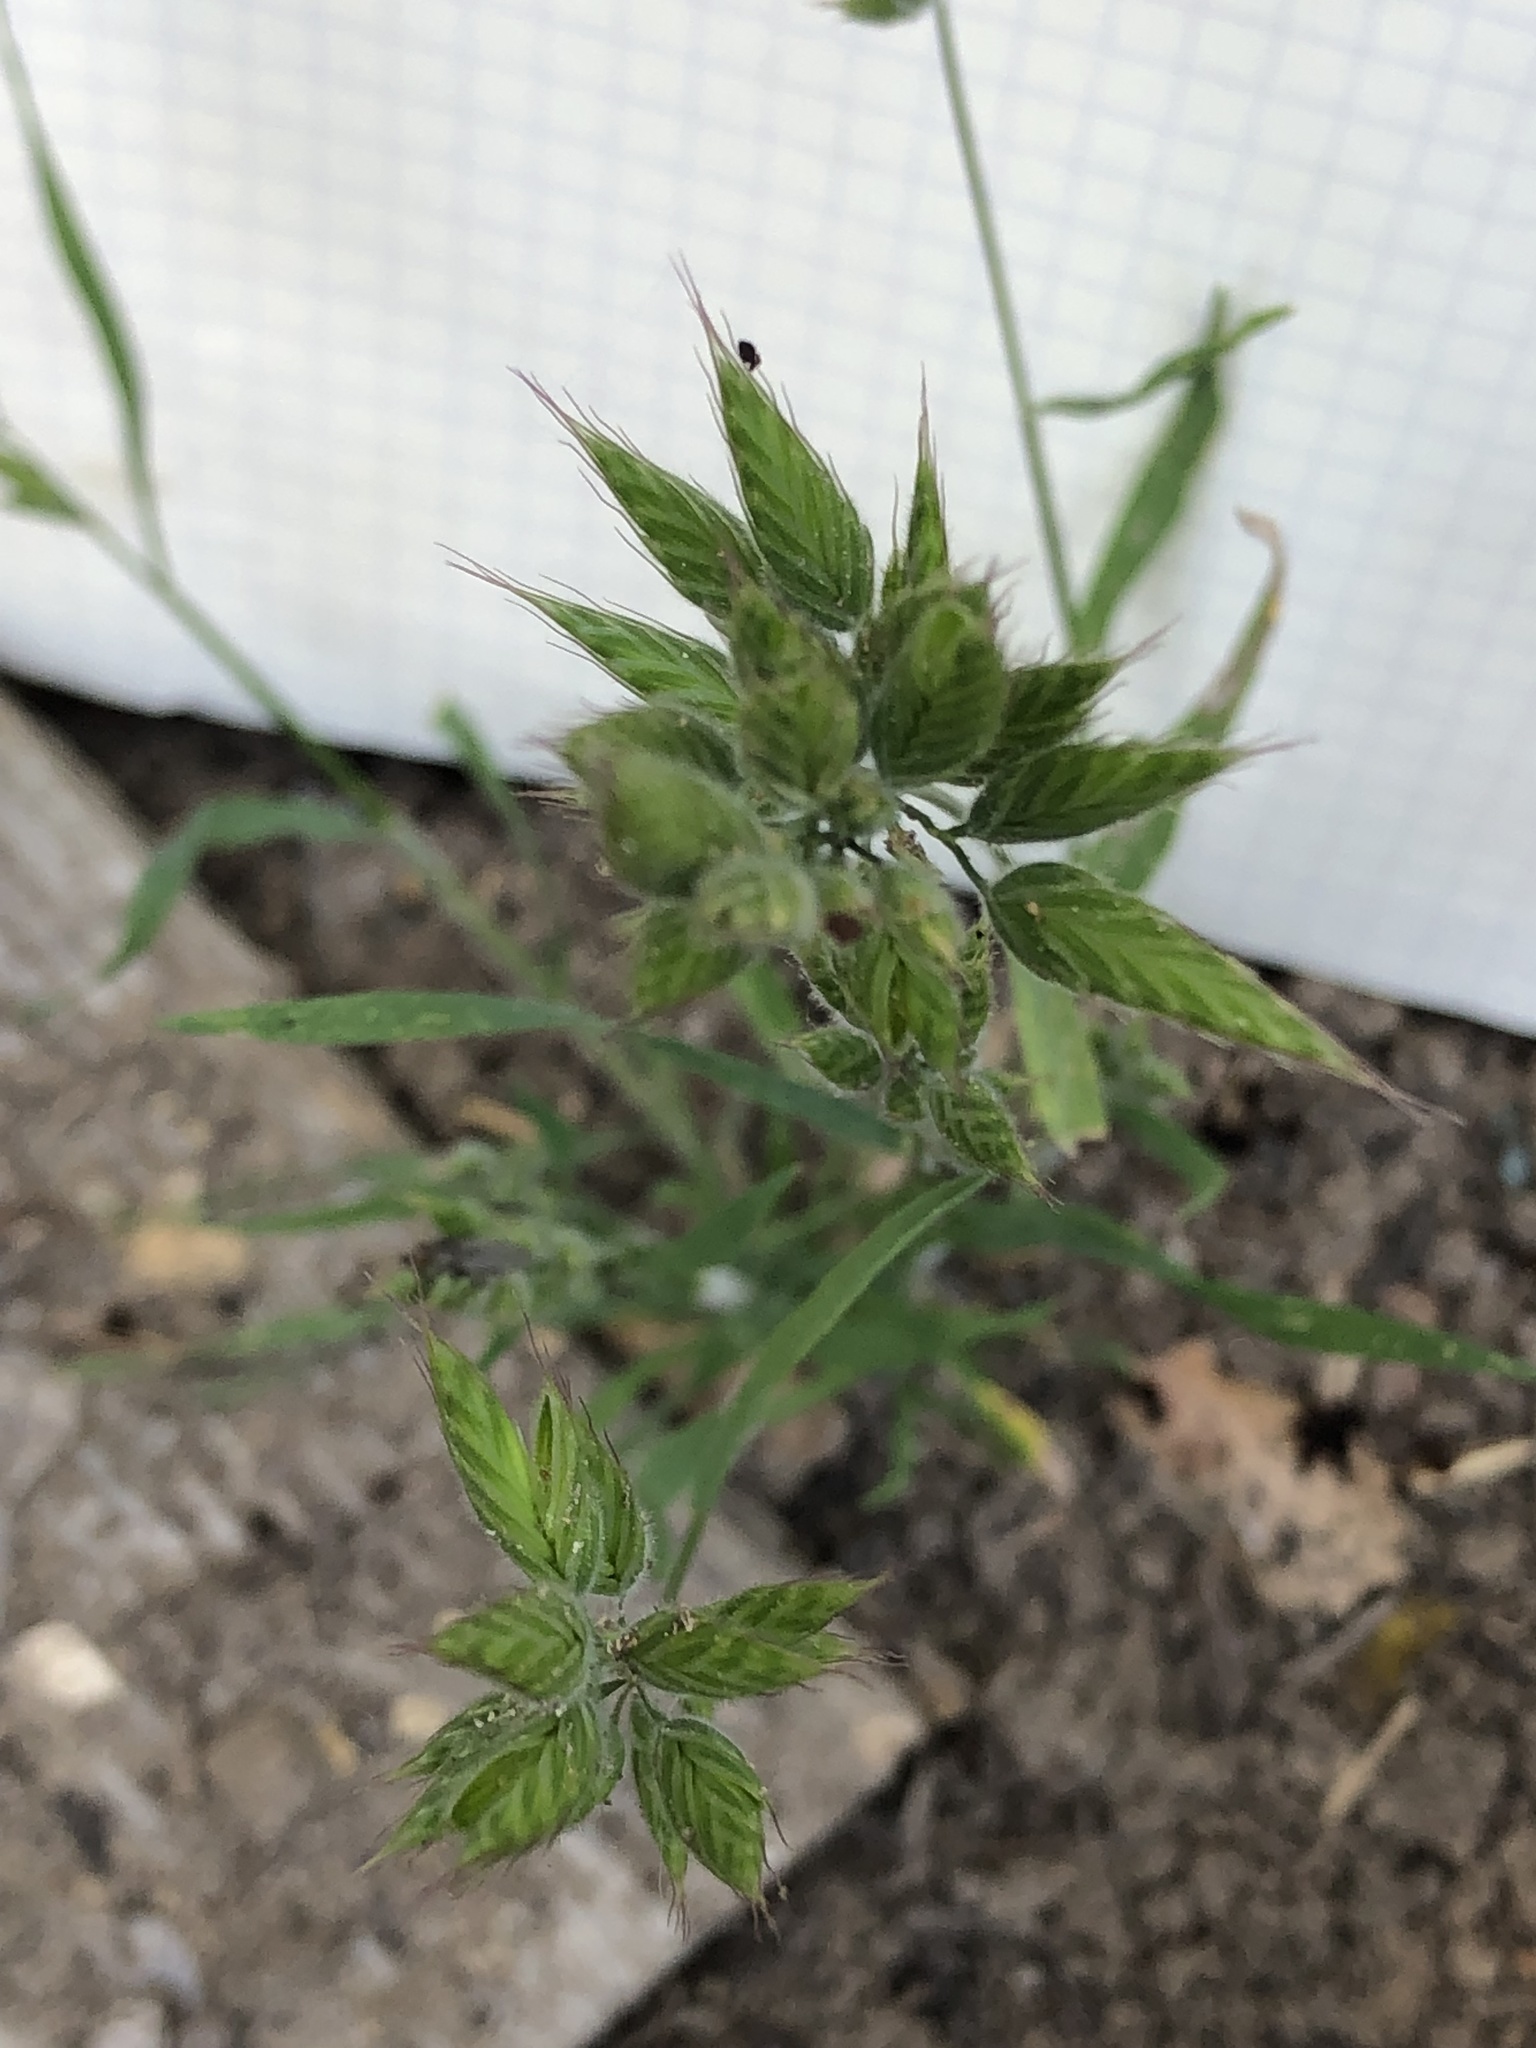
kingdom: Plantae
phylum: Tracheophyta
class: Liliopsida
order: Poales
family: Poaceae
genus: Bromus
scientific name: Bromus hordeaceus
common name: Soft brome
